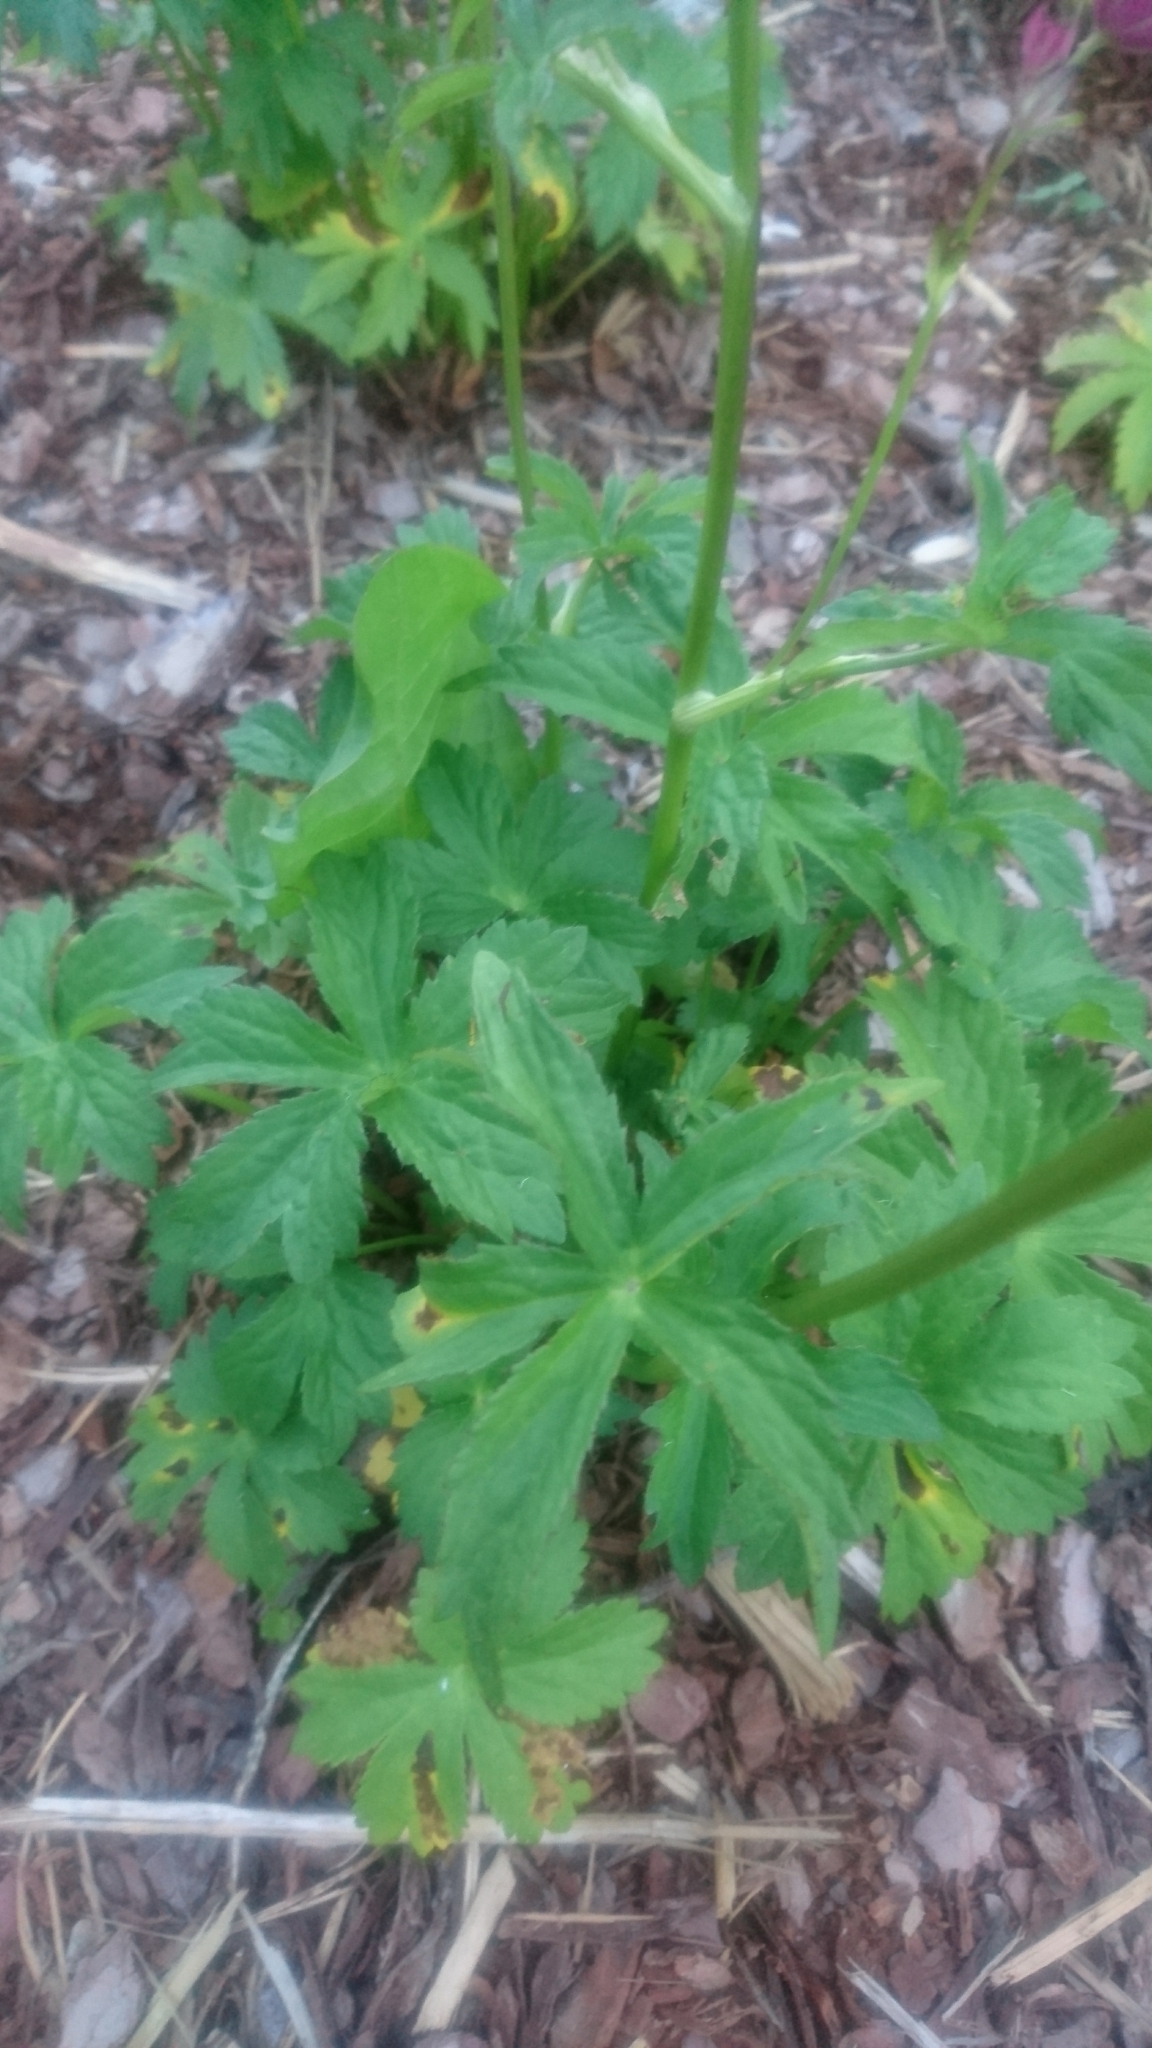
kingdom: Plantae
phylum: Tracheophyta
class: Magnoliopsida
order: Apiales
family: Apiaceae
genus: Astrantia
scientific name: Astrantia major
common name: Greater masterwort
